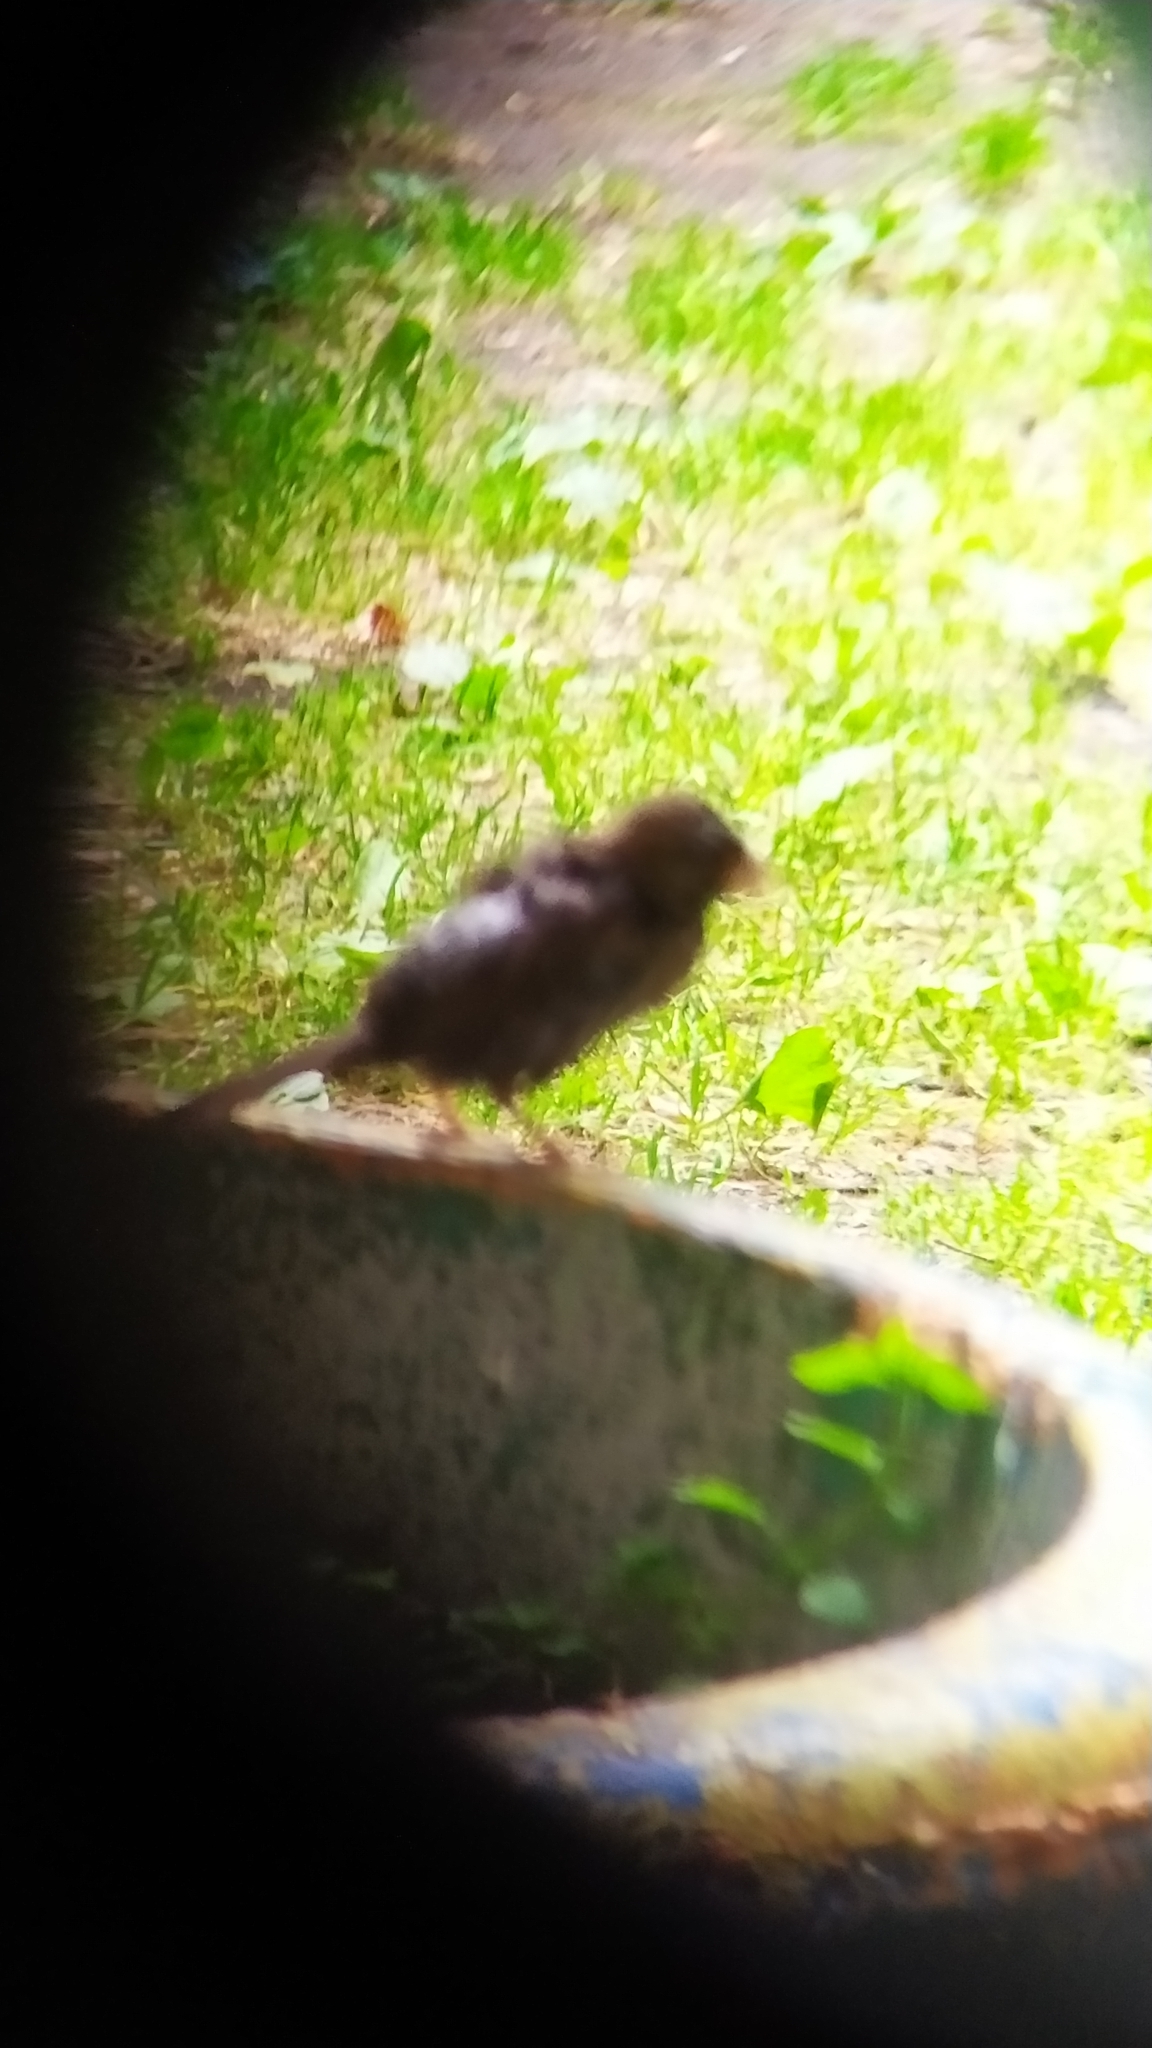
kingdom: Animalia
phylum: Chordata
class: Aves
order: Passeriformes
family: Passeridae
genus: Passer
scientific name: Passer domesticus
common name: House sparrow
